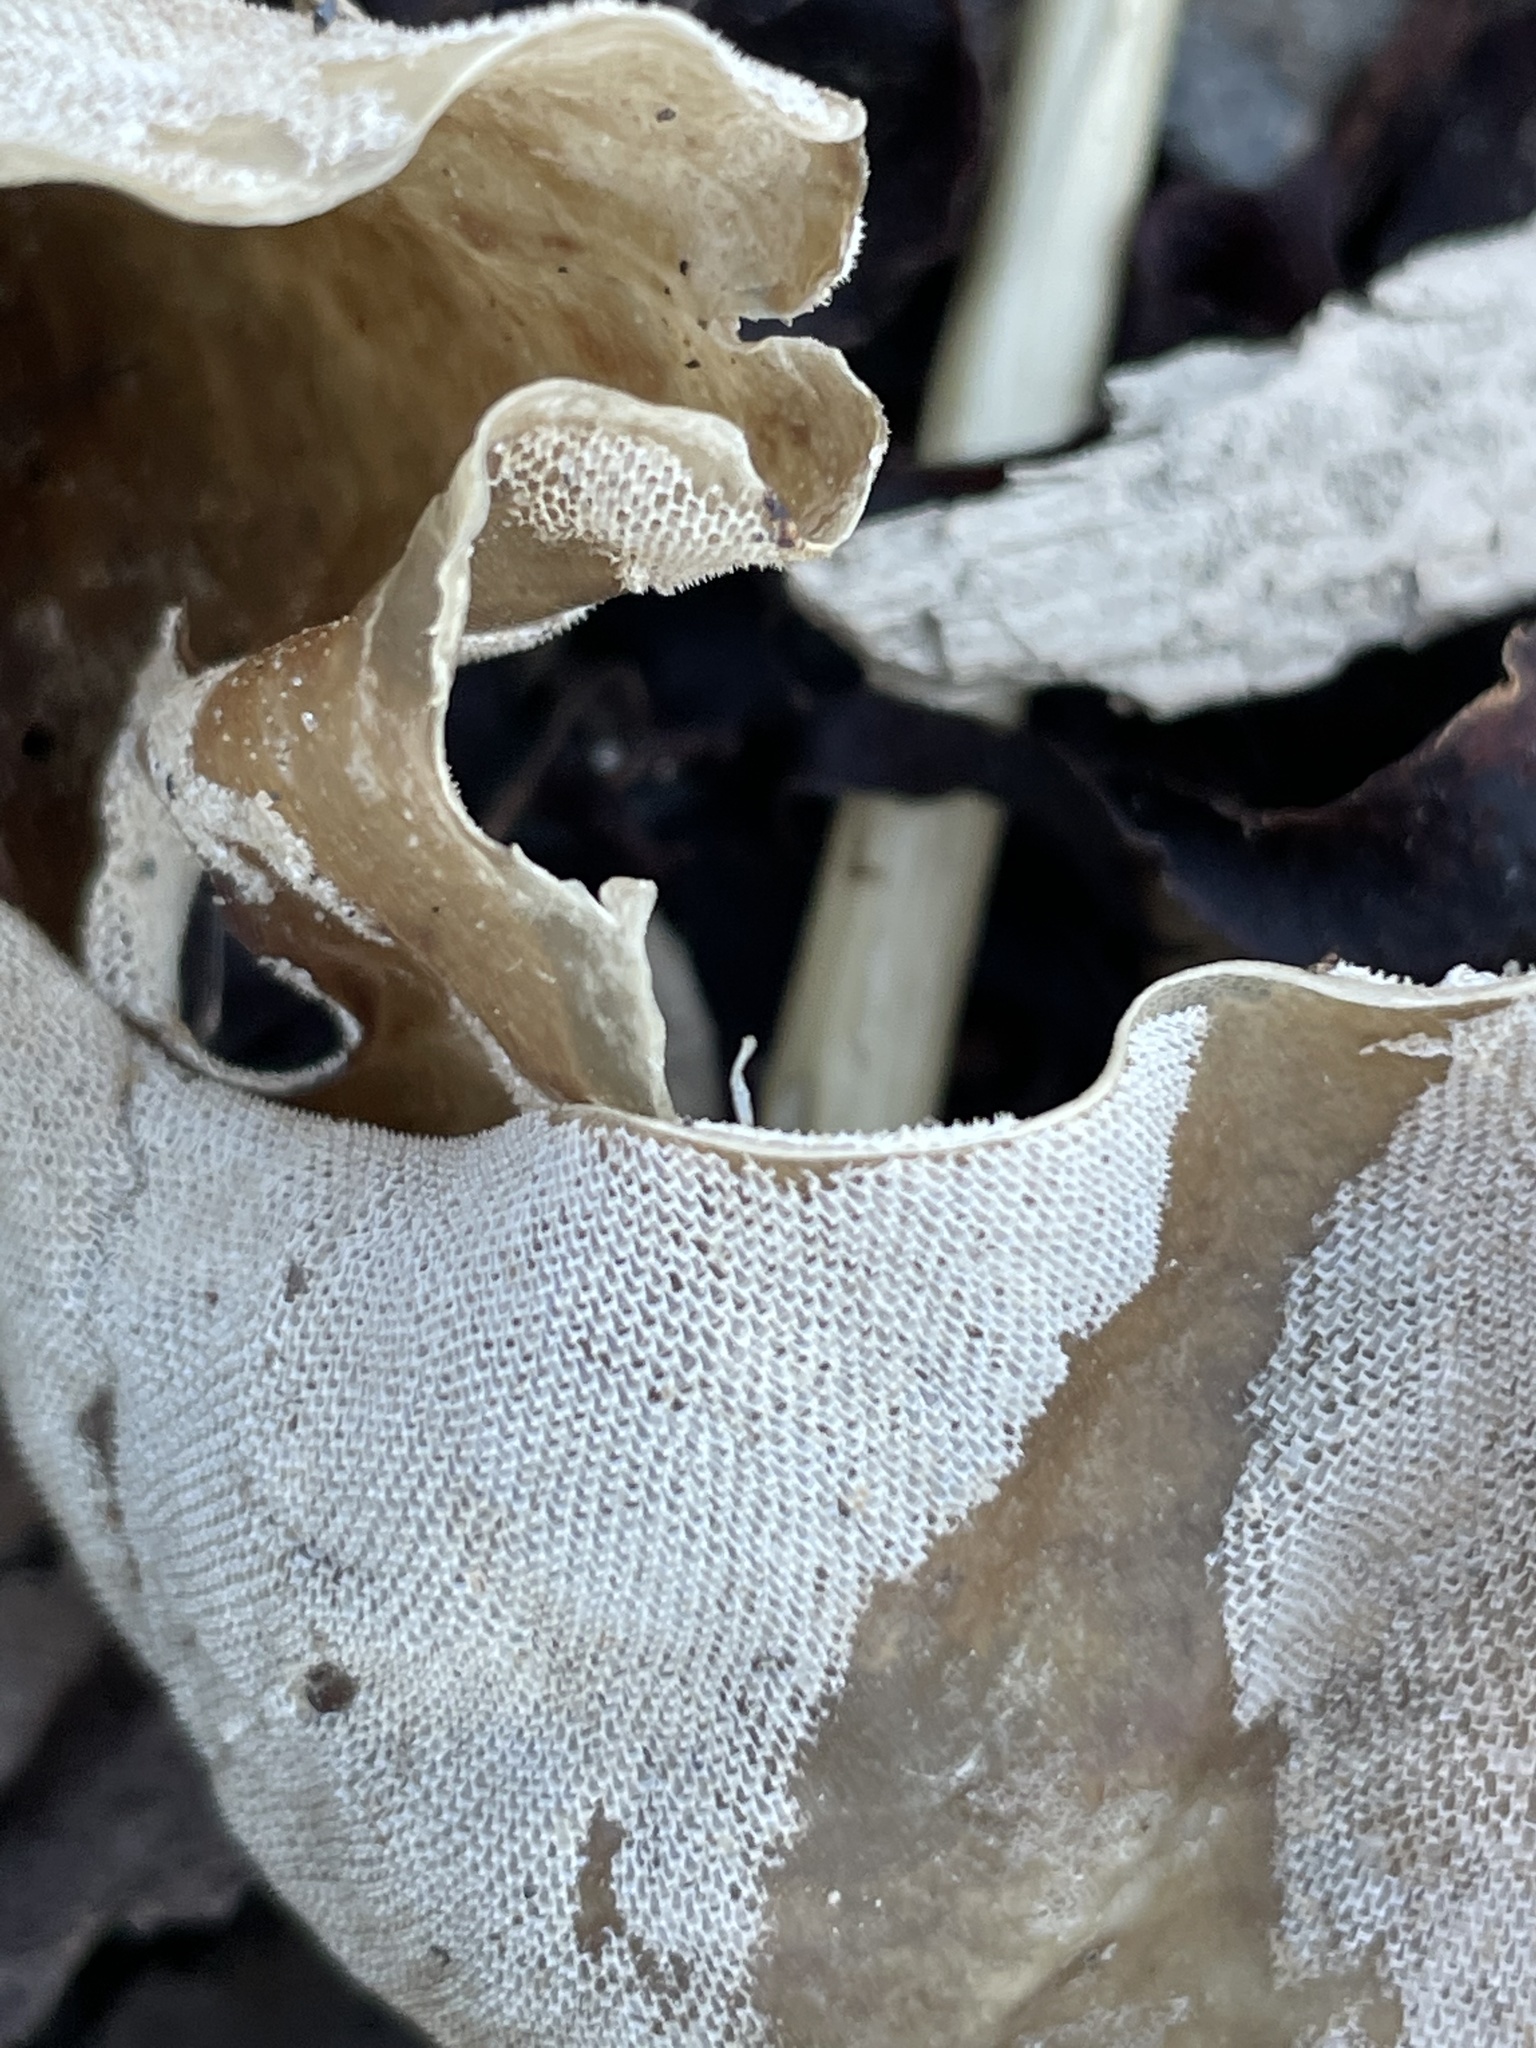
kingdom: Animalia
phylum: Bryozoa
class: Gymnolaemata
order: Cheilostomatida
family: Membraniporidae
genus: Membranipora
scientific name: Membranipora membranacea
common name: Sea mat
